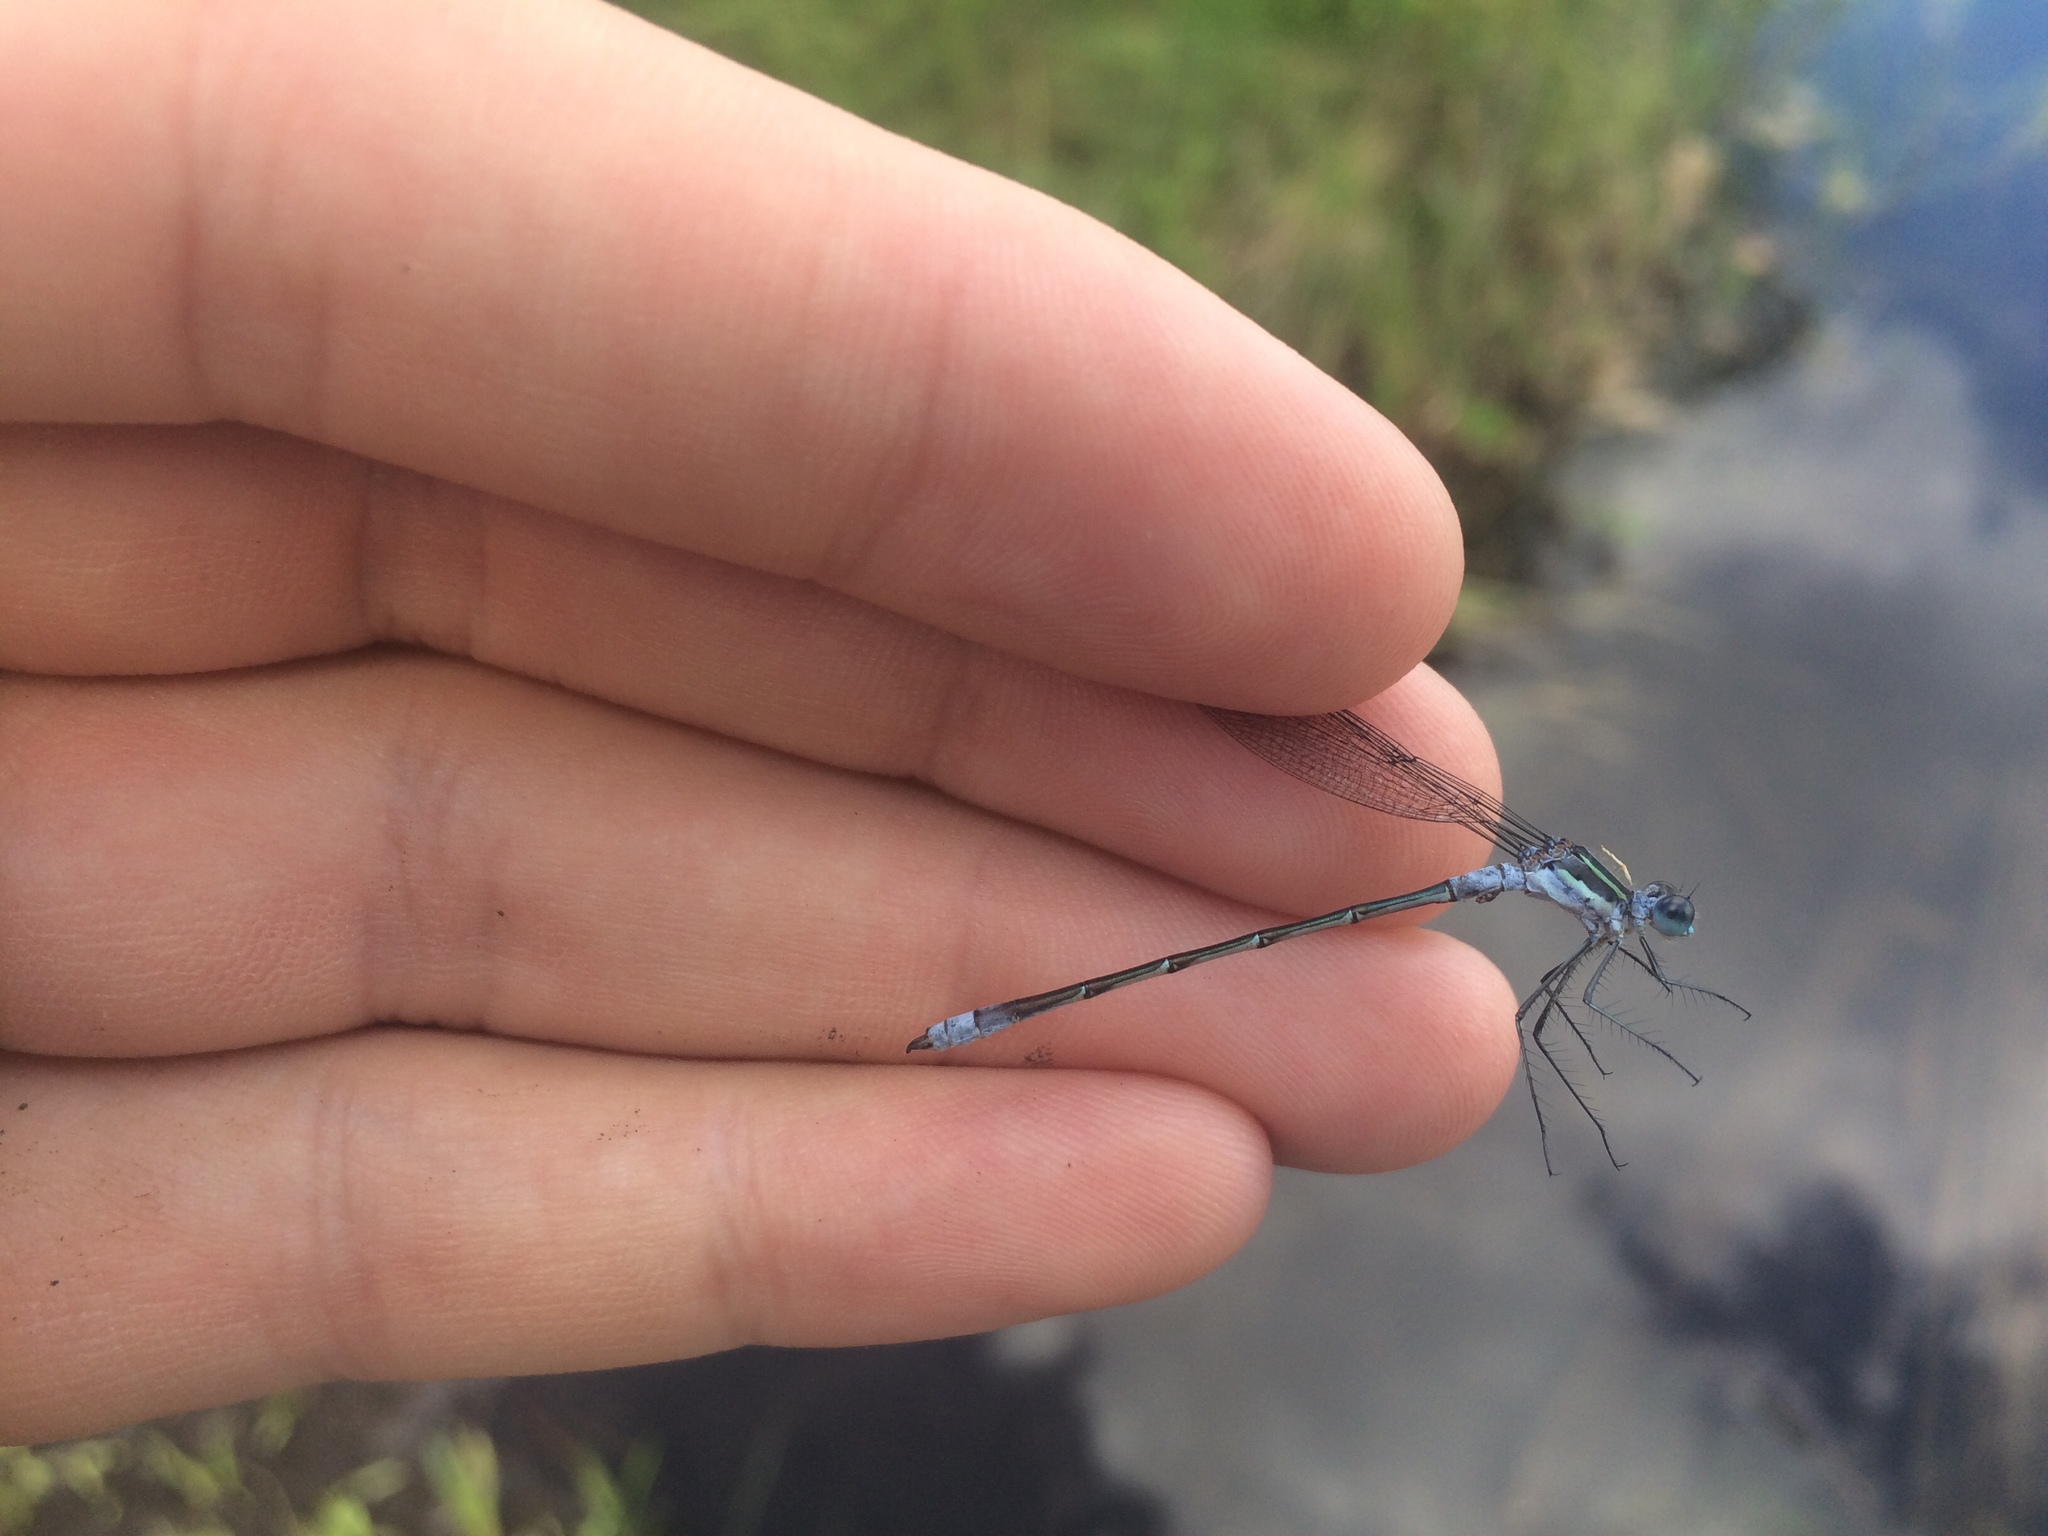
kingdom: Animalia
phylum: Arthropoda
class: Insecta
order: Odonata
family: Lestidae
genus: Lestes
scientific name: Lestes disjunctus
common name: Northern spreadwing
